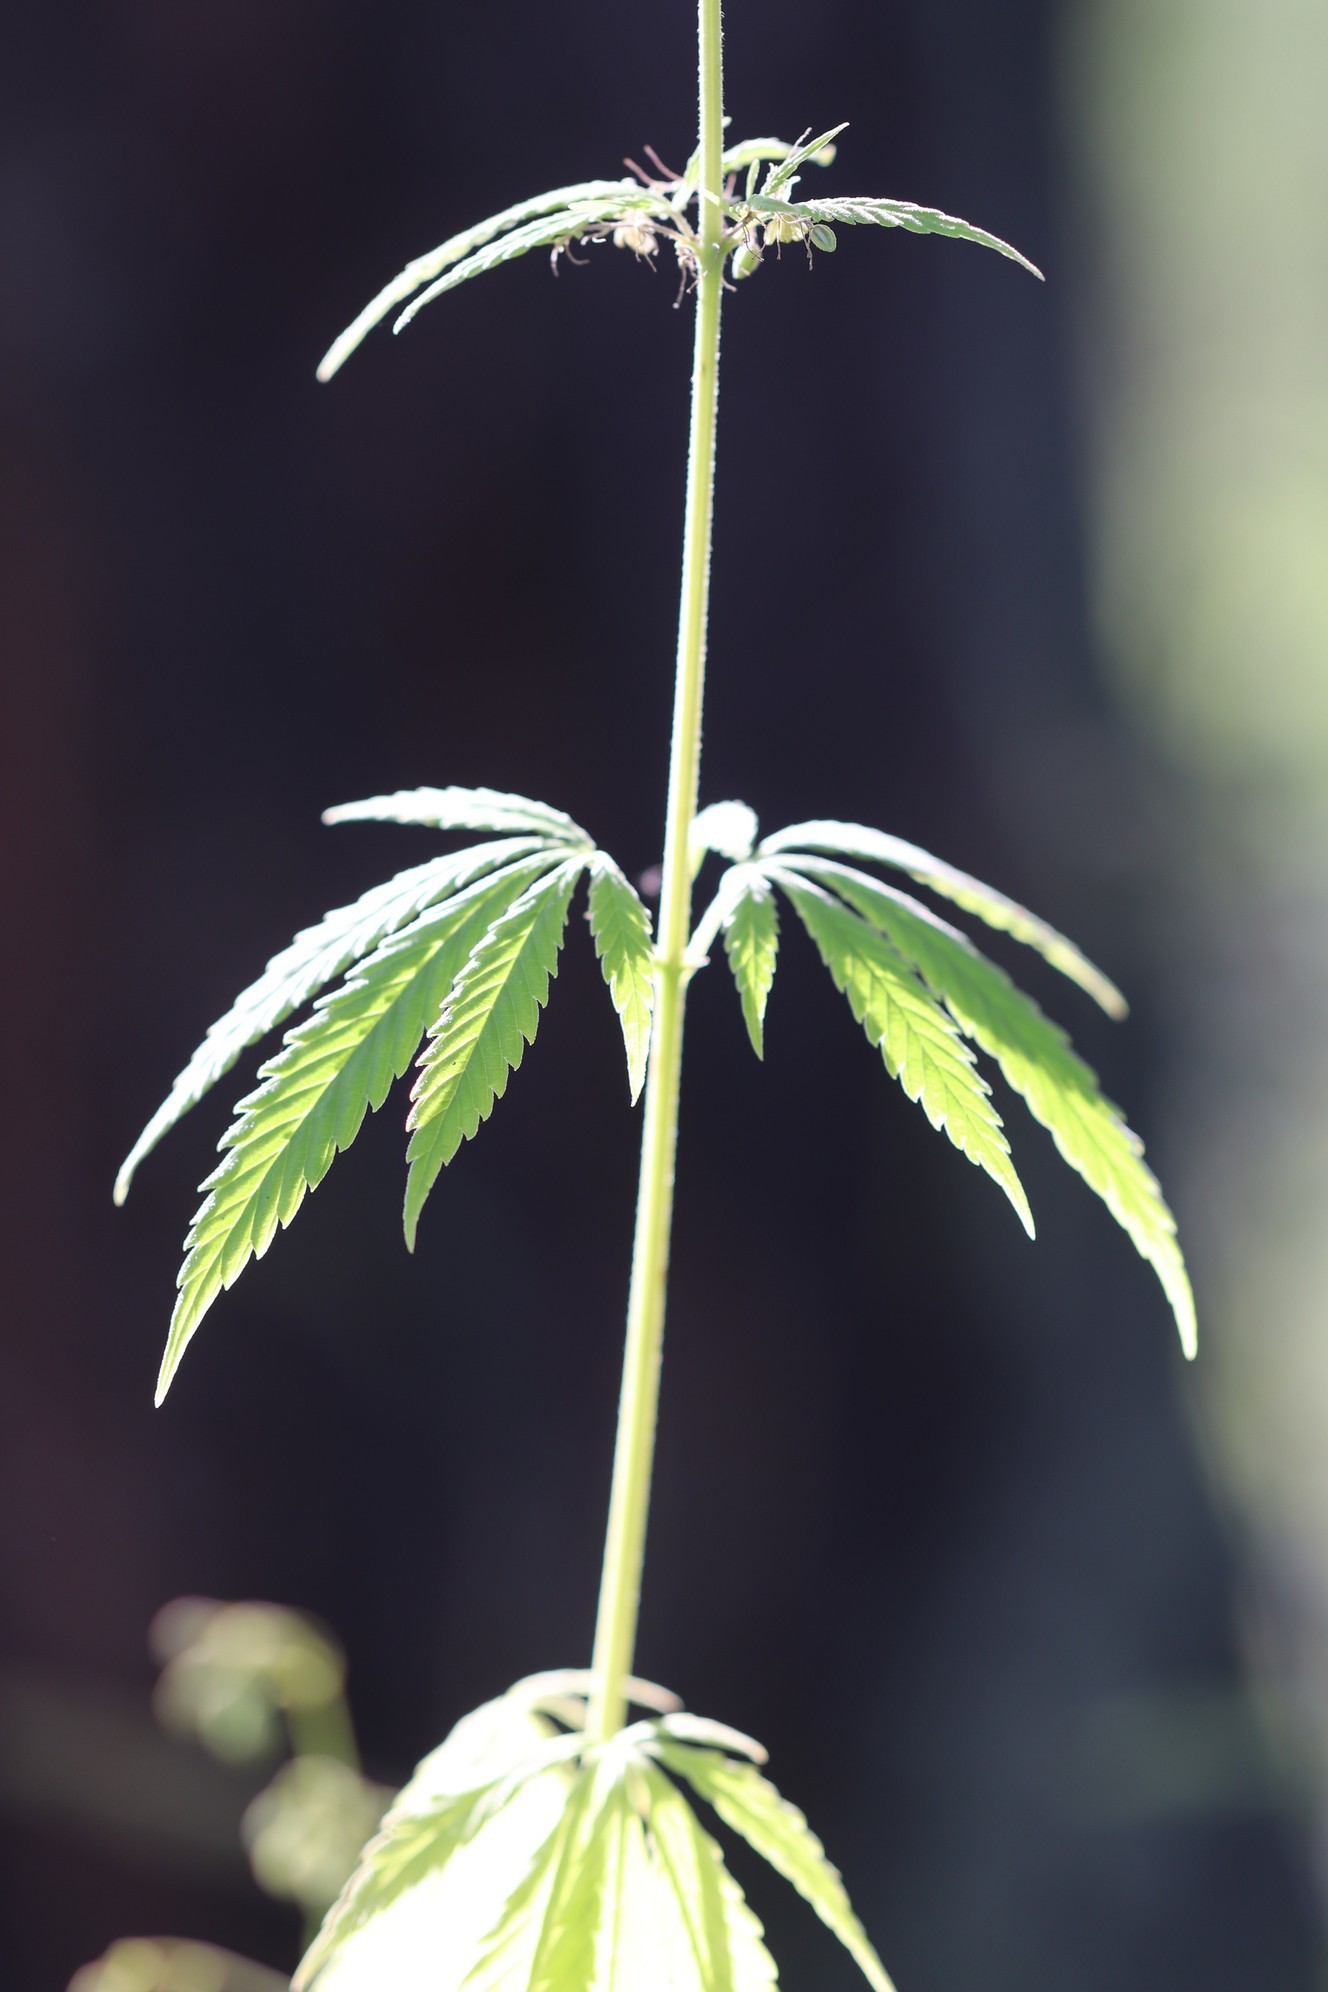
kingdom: Plantae
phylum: Tracheophyta
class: Magnoliopsida
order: Rosales
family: Cannabaceae
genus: Cannabis
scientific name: Cannabis sativa
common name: Hemp
